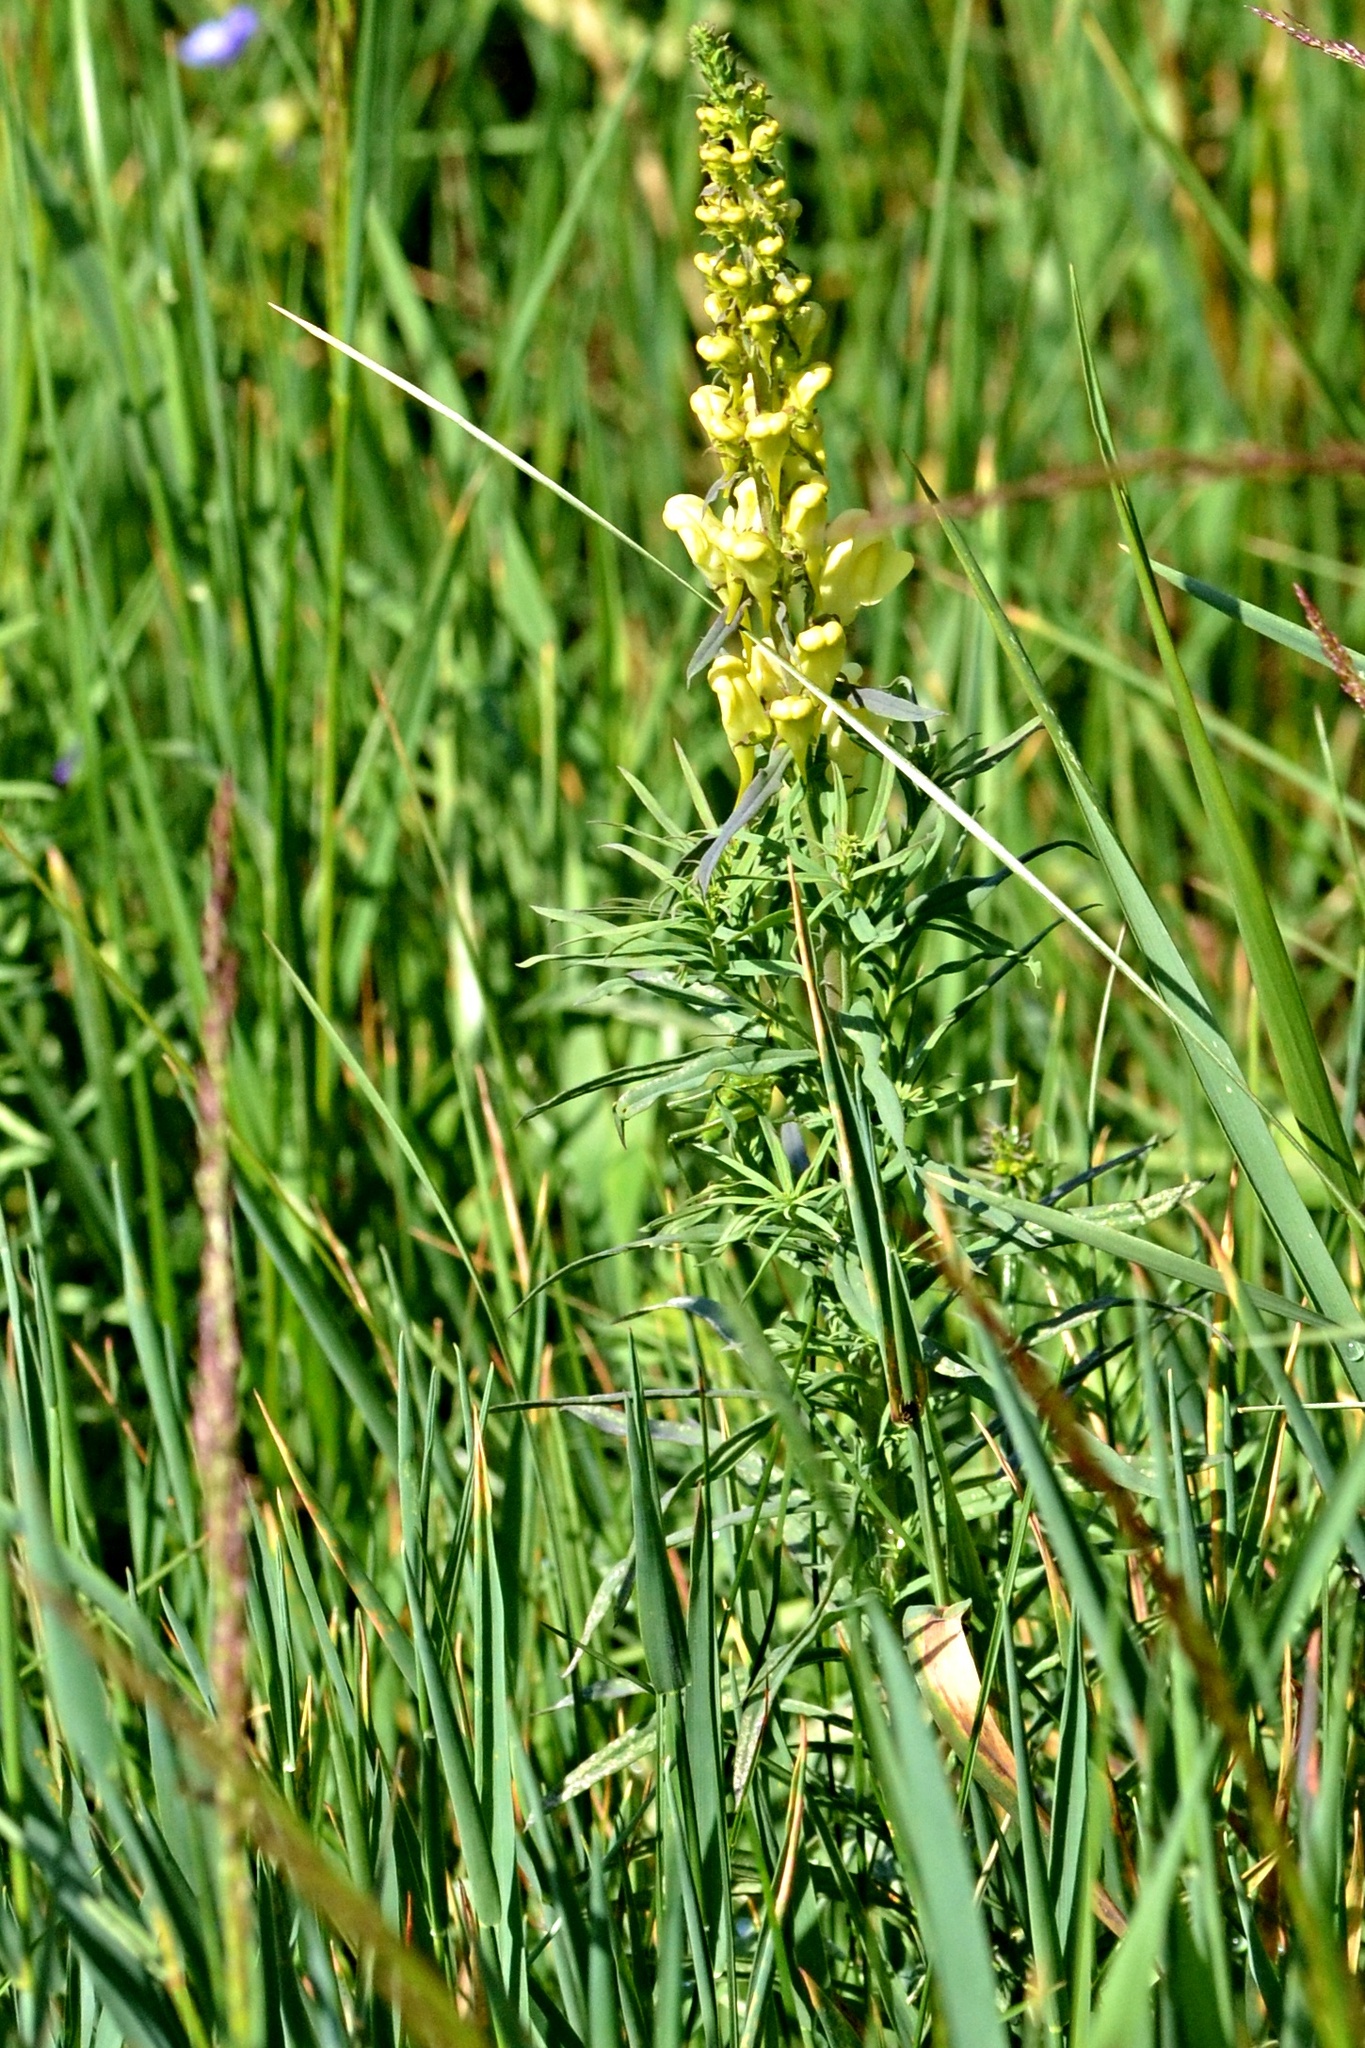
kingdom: Plantae
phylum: Tracheophyta
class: Magnoliopsida
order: Lamiales
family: Plantaginaceae
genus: Linaria
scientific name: Linaria vulgaris
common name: Butter and eggs
